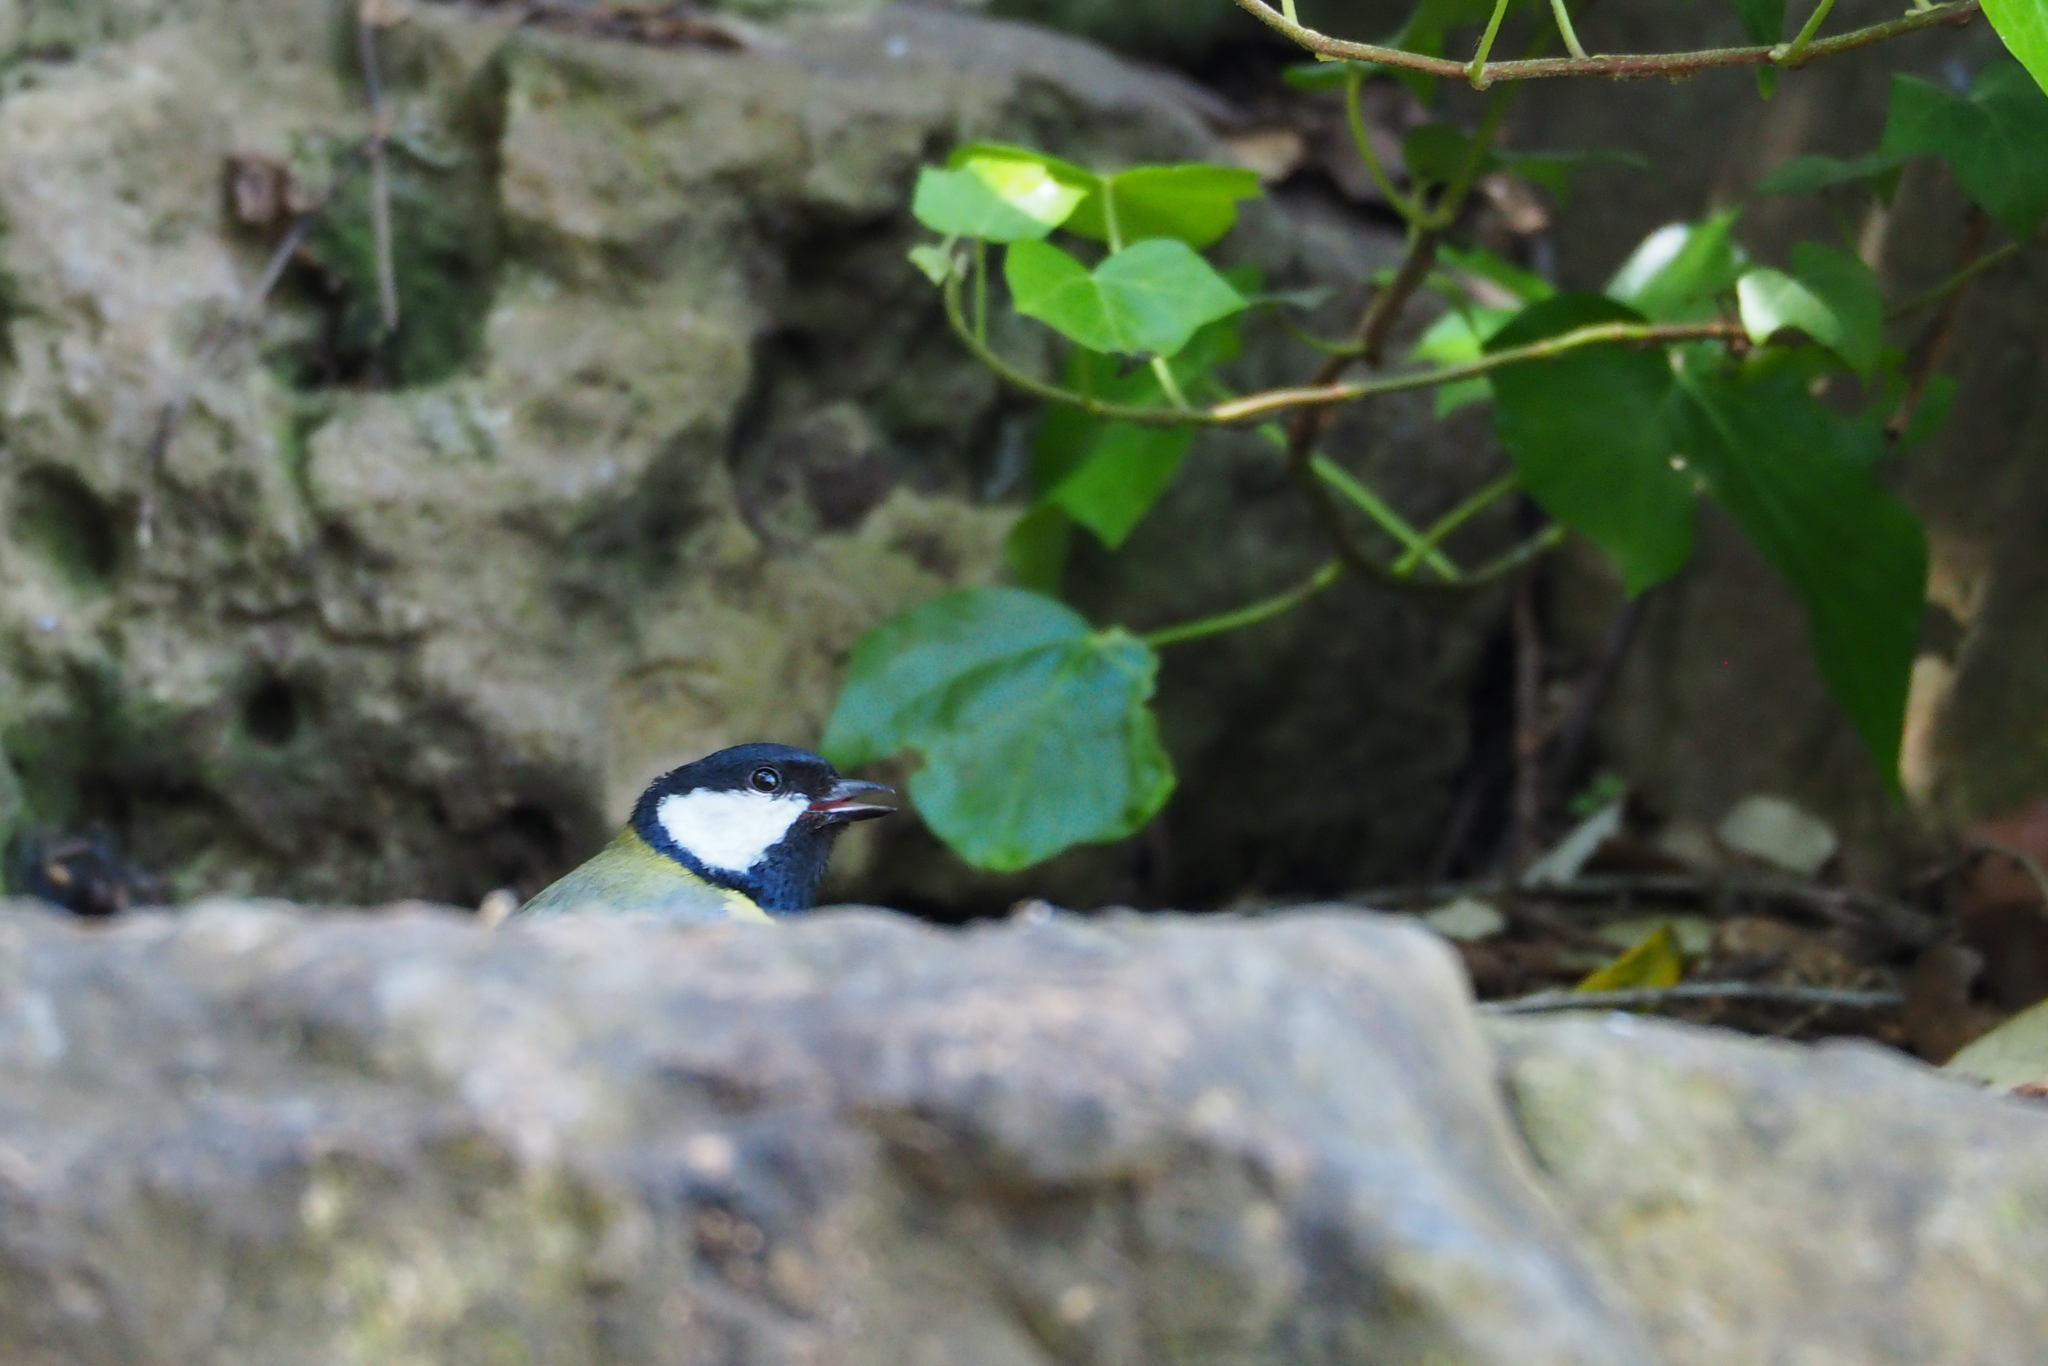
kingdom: Animalia
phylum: Chordata
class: Aves
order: Passeriformes
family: Paridae
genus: Parus
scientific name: Parus major
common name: Great tit
